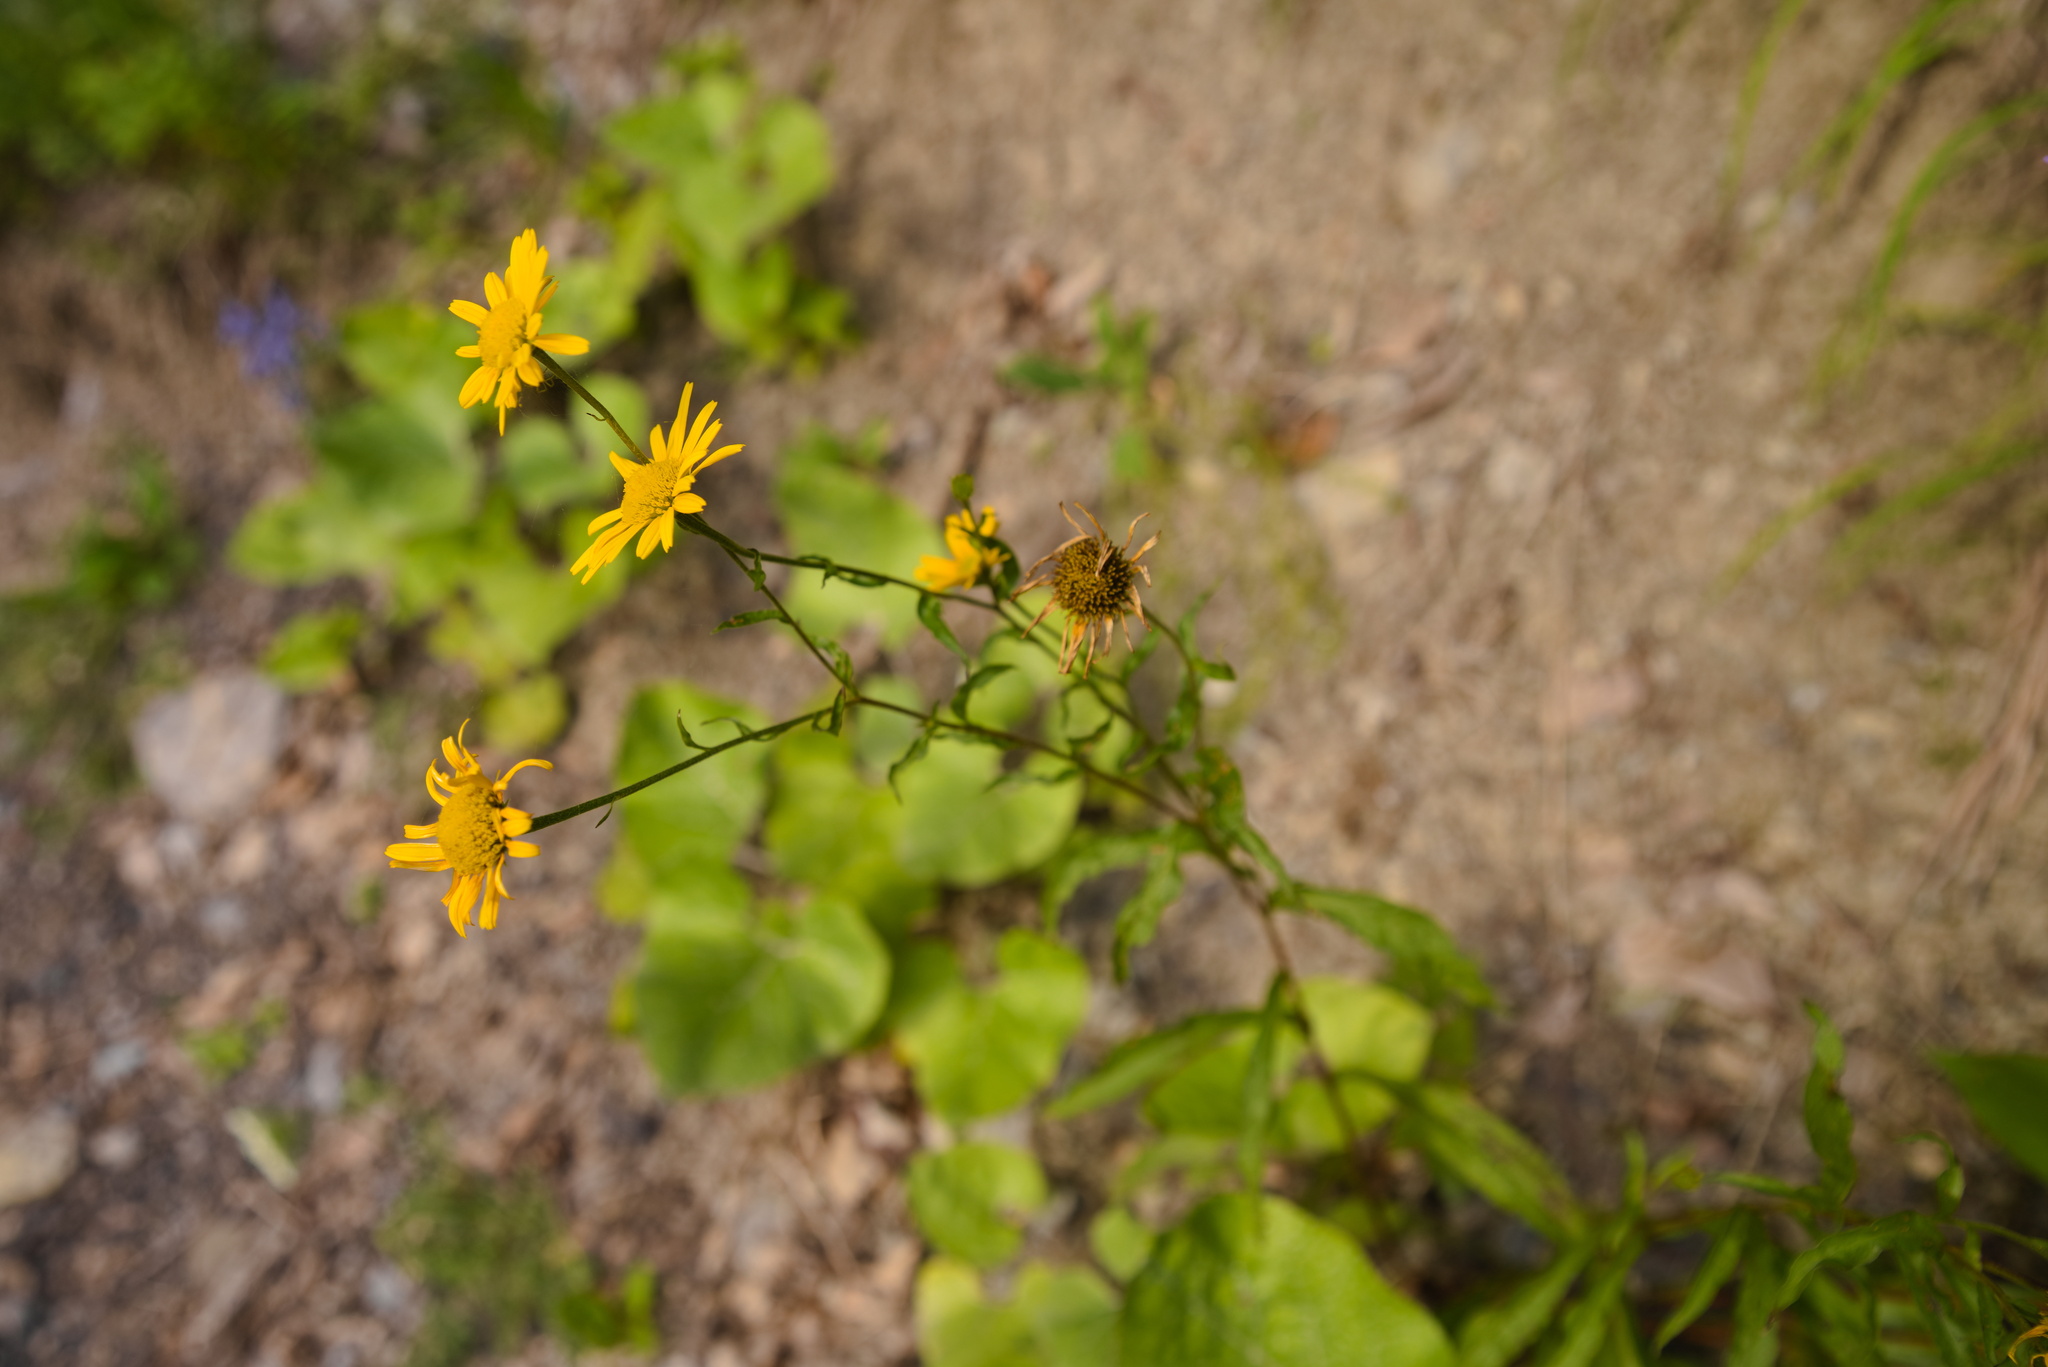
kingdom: Plantae
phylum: Tracheophyta
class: Magnoliopsida
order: Asterales
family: Asteraceae
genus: Buphthalmum
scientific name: Buphthalmum salicifolium
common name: Willow-leaved yellow-oxeye
